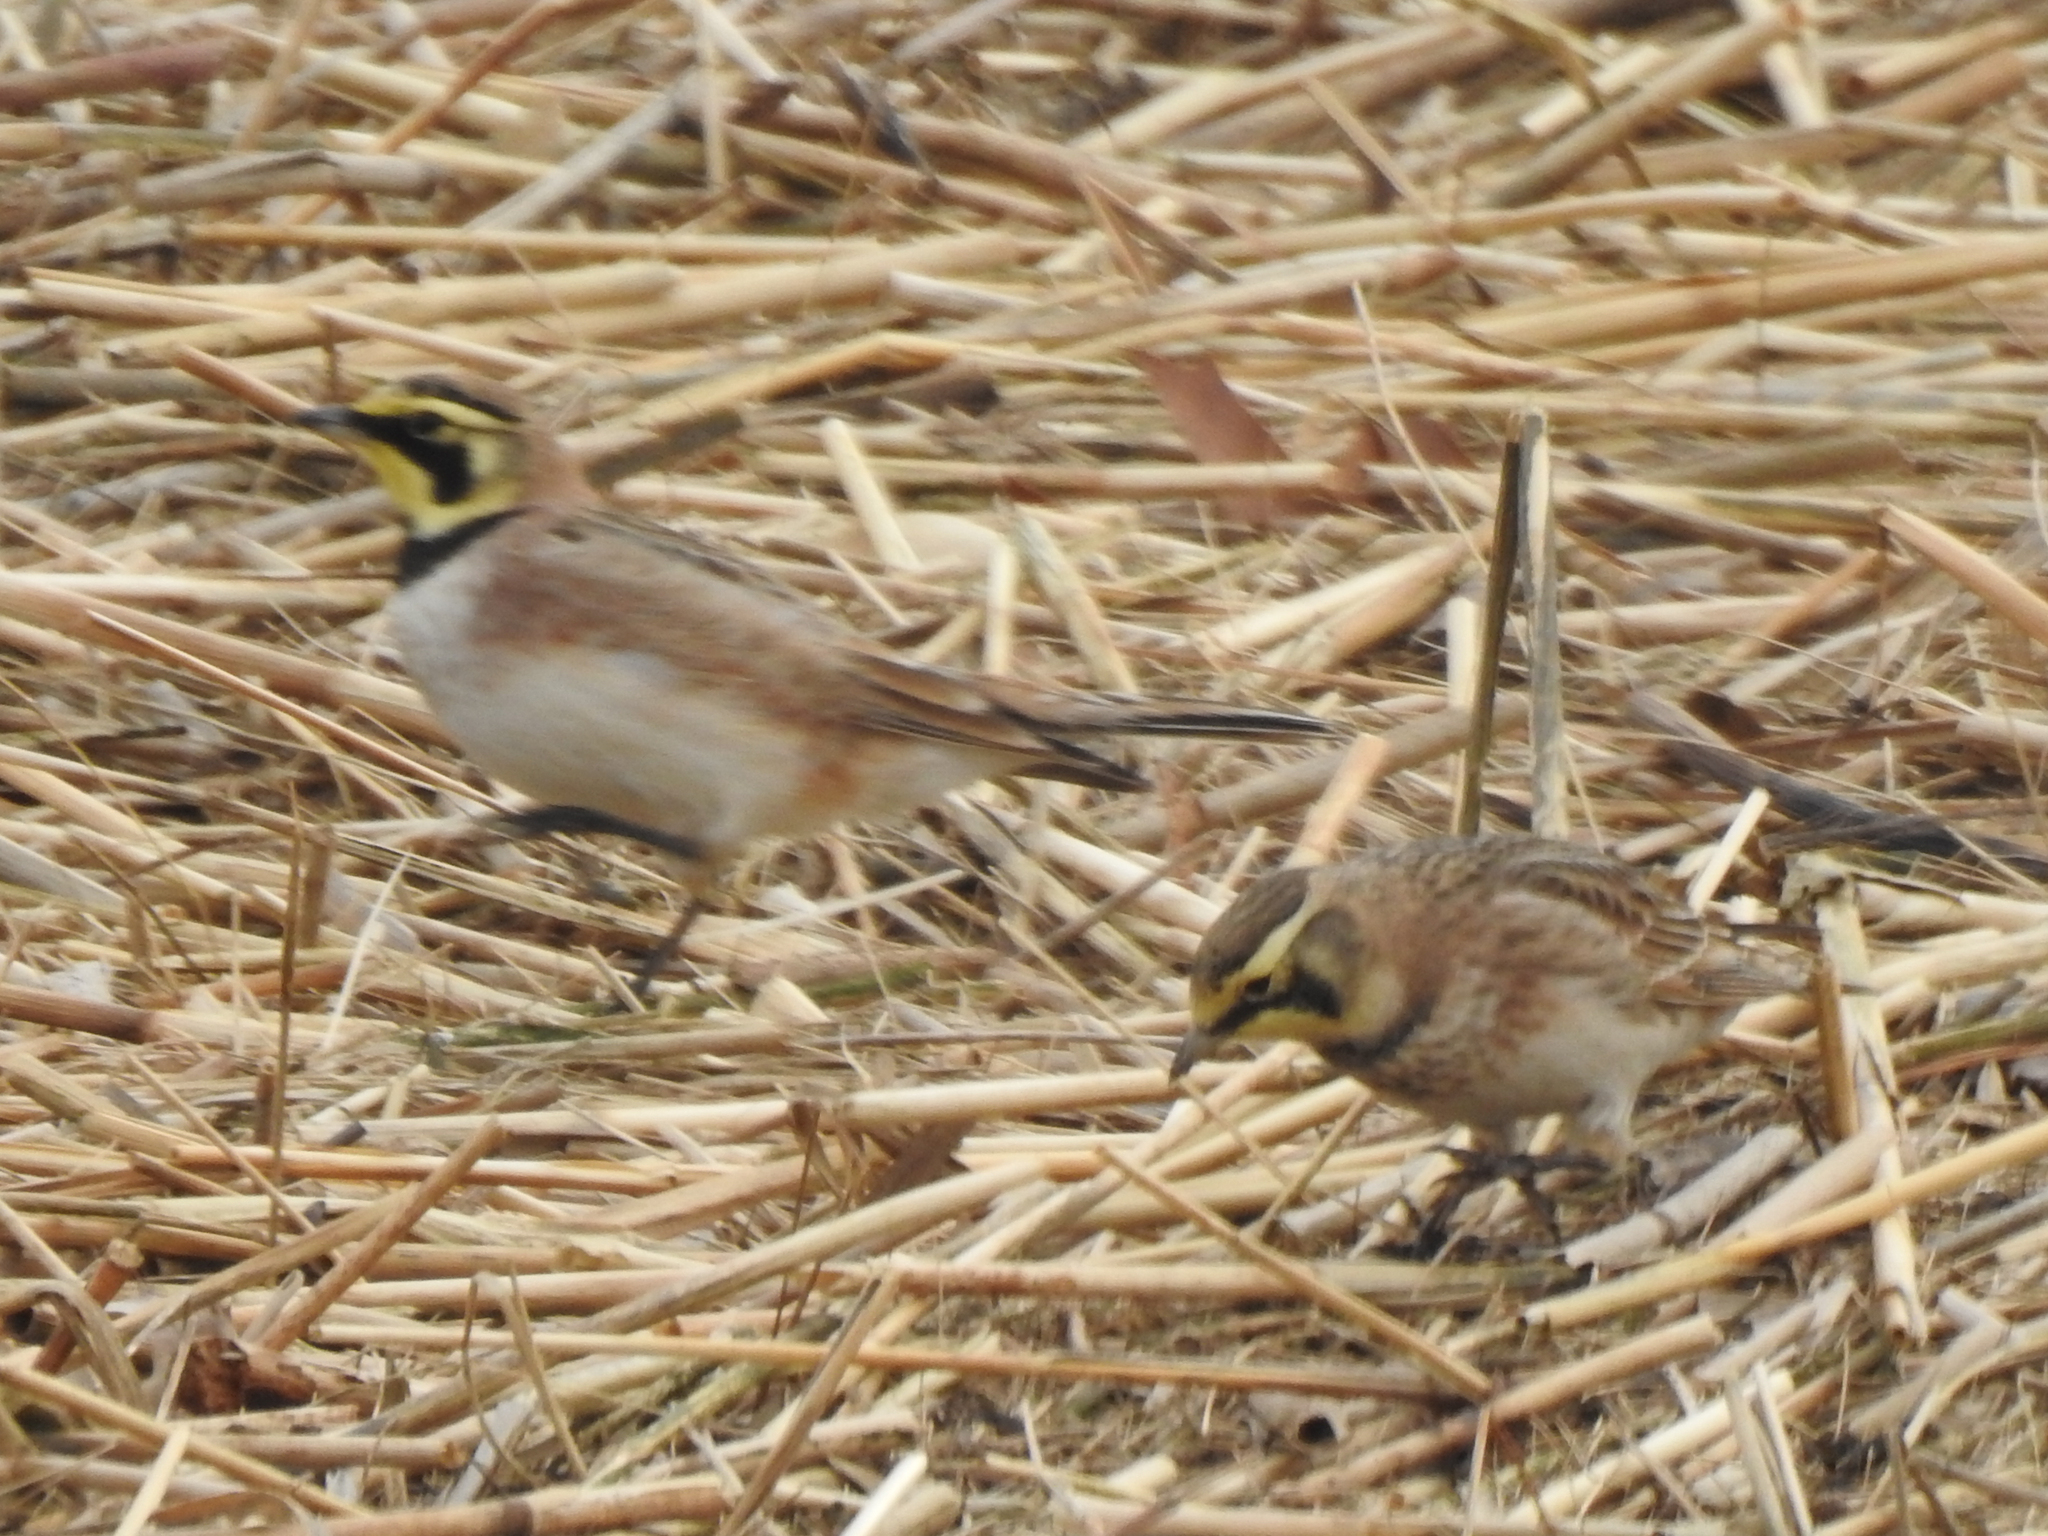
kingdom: Animalia
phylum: Chordata
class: Aves
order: Passeriformes
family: Alaudidae
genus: Eremophila
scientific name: Eremophila alpestris
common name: Horned lark
